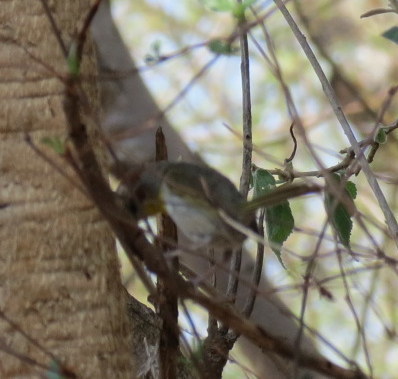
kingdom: Animalia
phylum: Chordata
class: Aves
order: Passeriformes
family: Parulidae
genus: Basileuterus
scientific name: Basileuterus rufifrons
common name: Rufous-capped warbler
